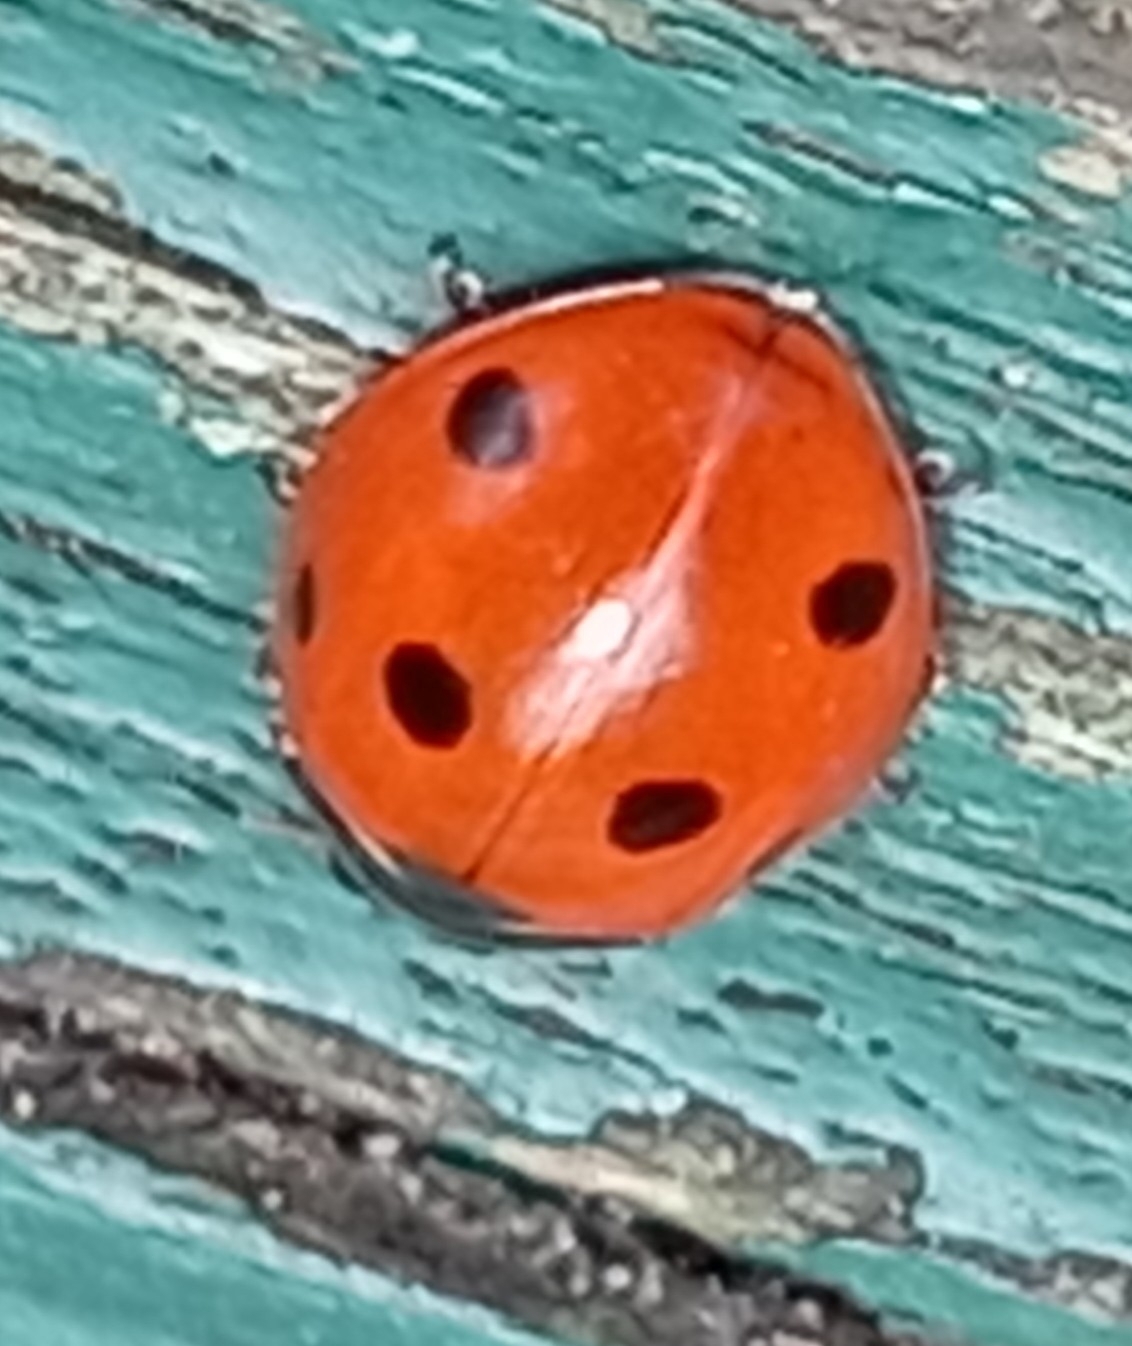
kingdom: Animalia
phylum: Arthropoda
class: Insecta
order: Coleoptera
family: Coccinellidae
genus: Coccinella
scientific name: Coccinella septempunctata
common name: Sevenspotted lady beetle
